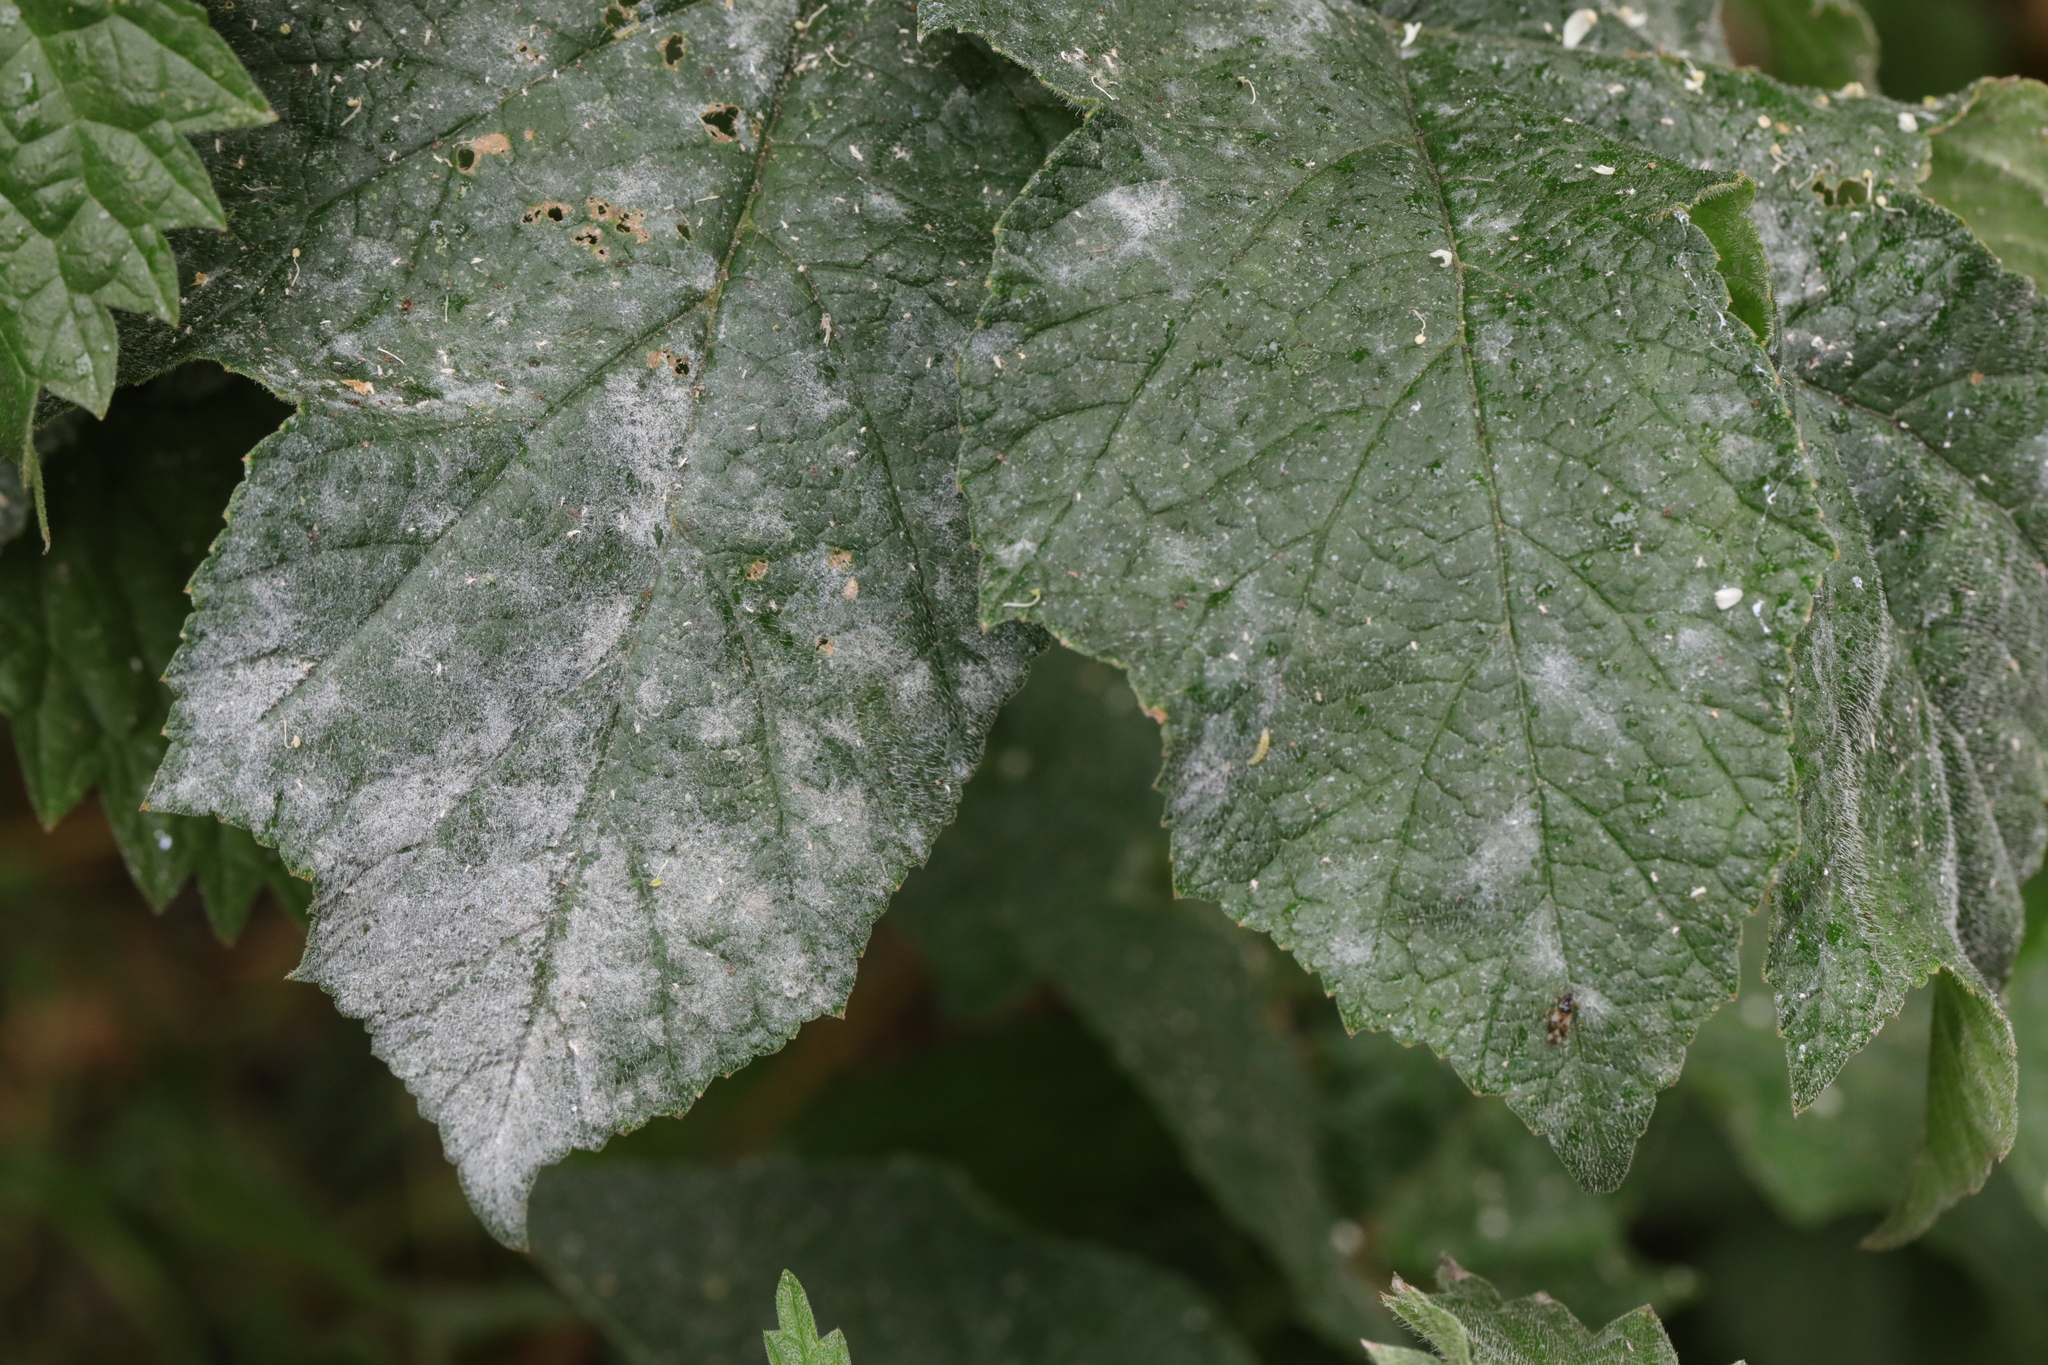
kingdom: Fungi
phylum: Ascomycota
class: Leotiomycetes
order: Helotiales
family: Erysiphaceae
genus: Erysiphe
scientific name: Erysiphe heraclei
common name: Umbellifer mildew
